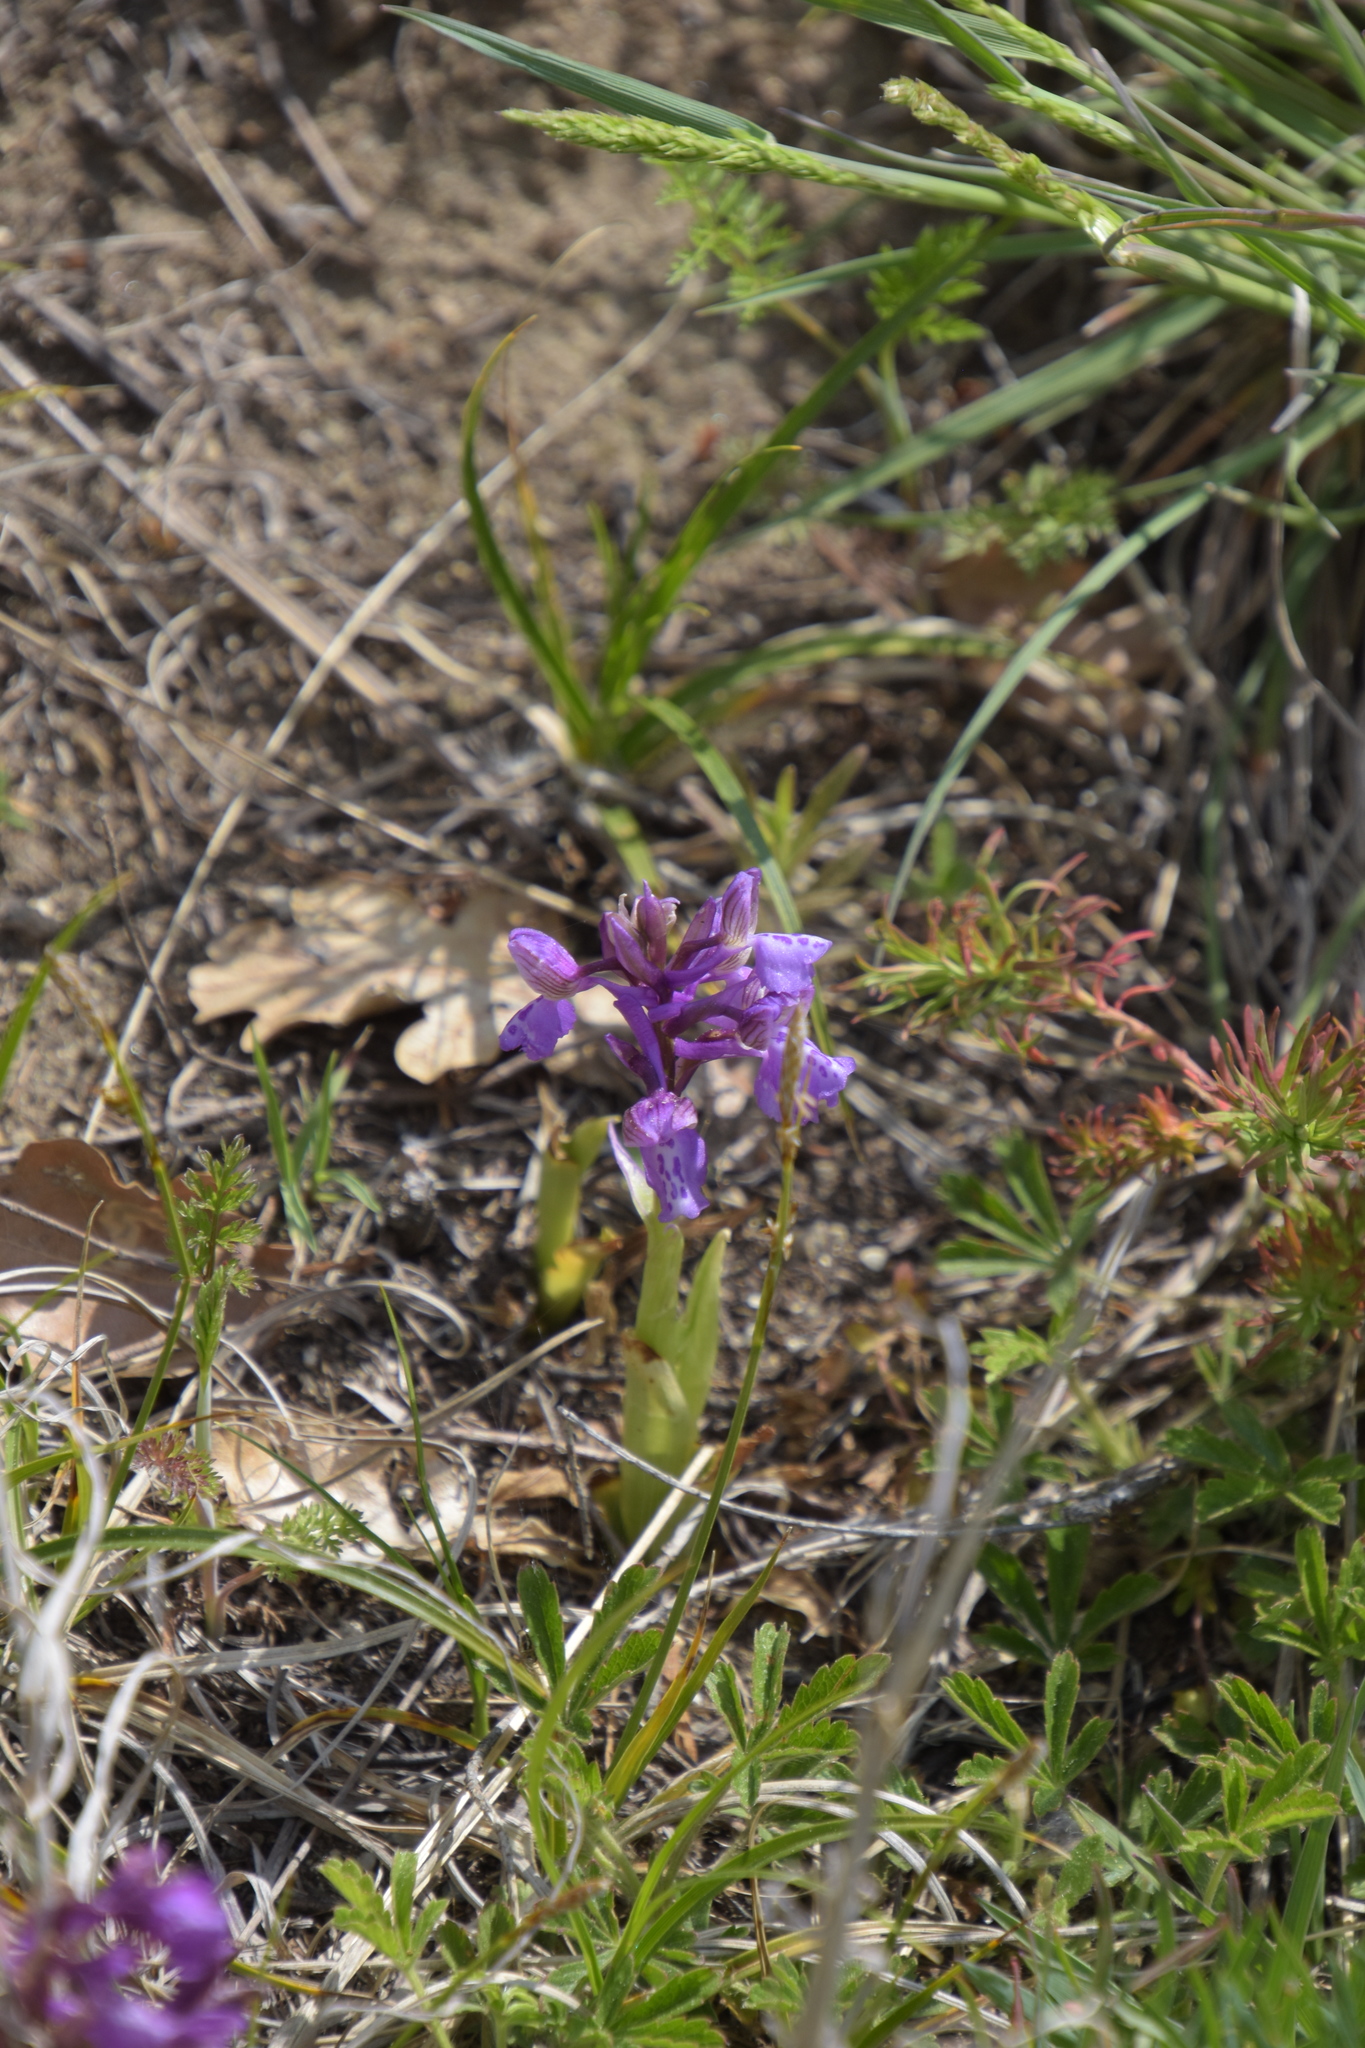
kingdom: Plantae
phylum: Tracheophyta
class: Liliopsida
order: Asparagales
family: Orchidaceae
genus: Anacamptis
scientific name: Anacamptis morio
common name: Green-winged orchid
